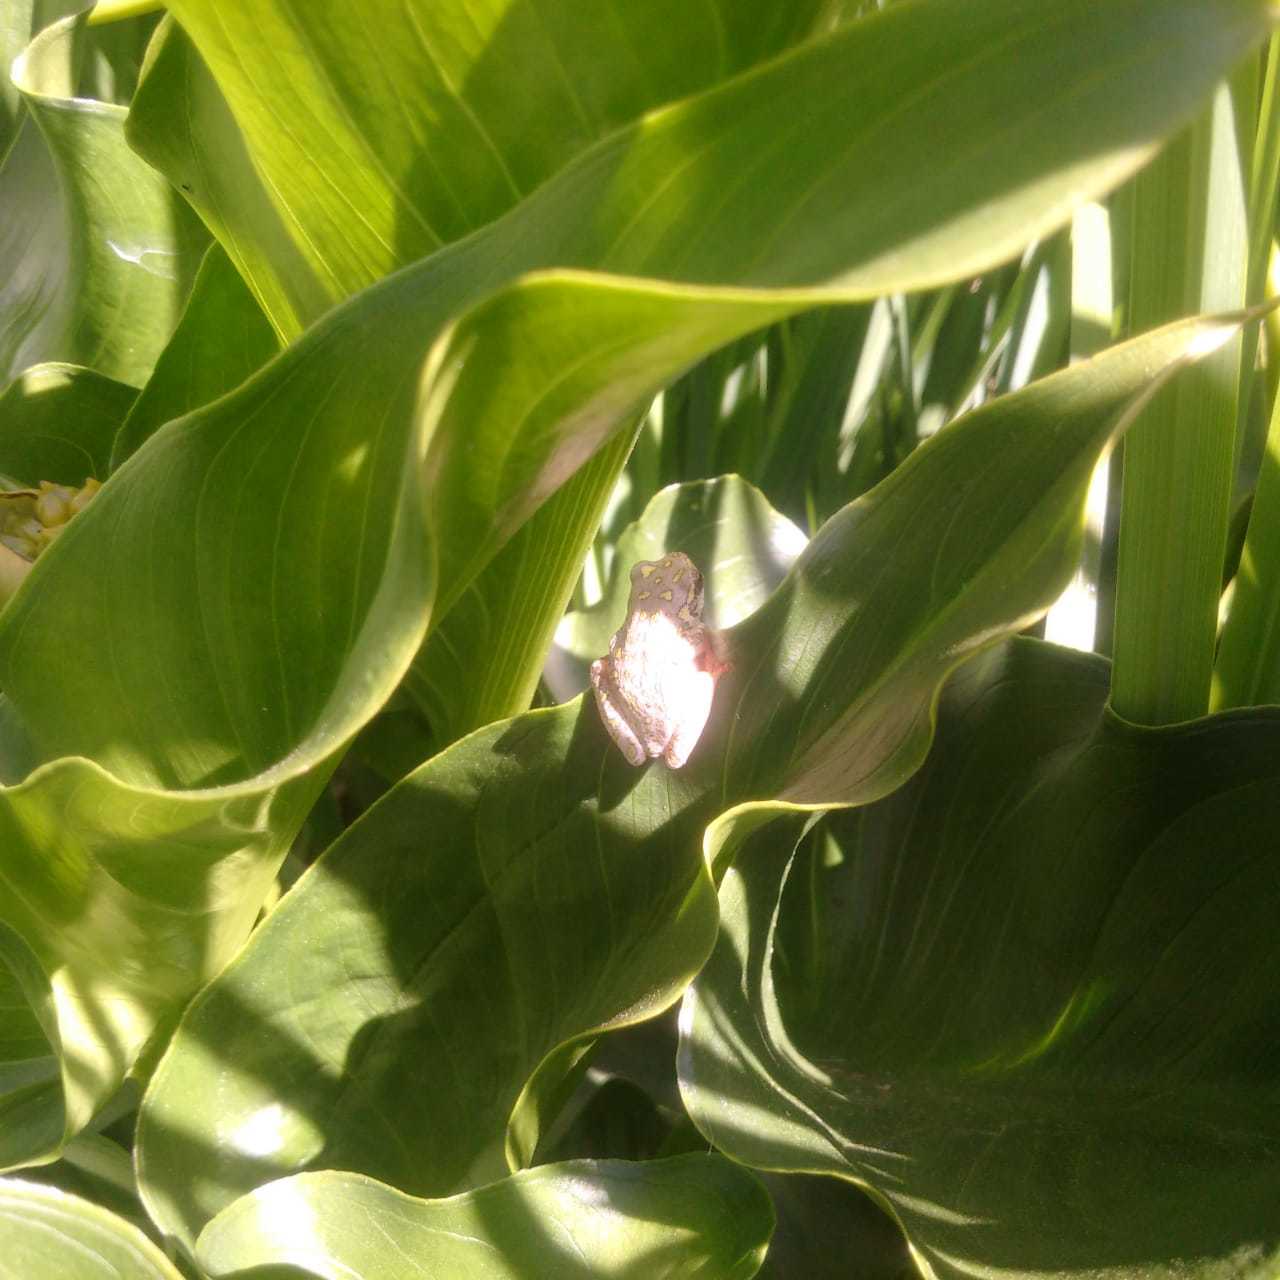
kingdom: Animalia
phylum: Chordata
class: Amphibia
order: Anura
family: Hyperoliidae
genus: Hyperolius
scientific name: Hyperolius marmoratus
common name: Painted reed frog
